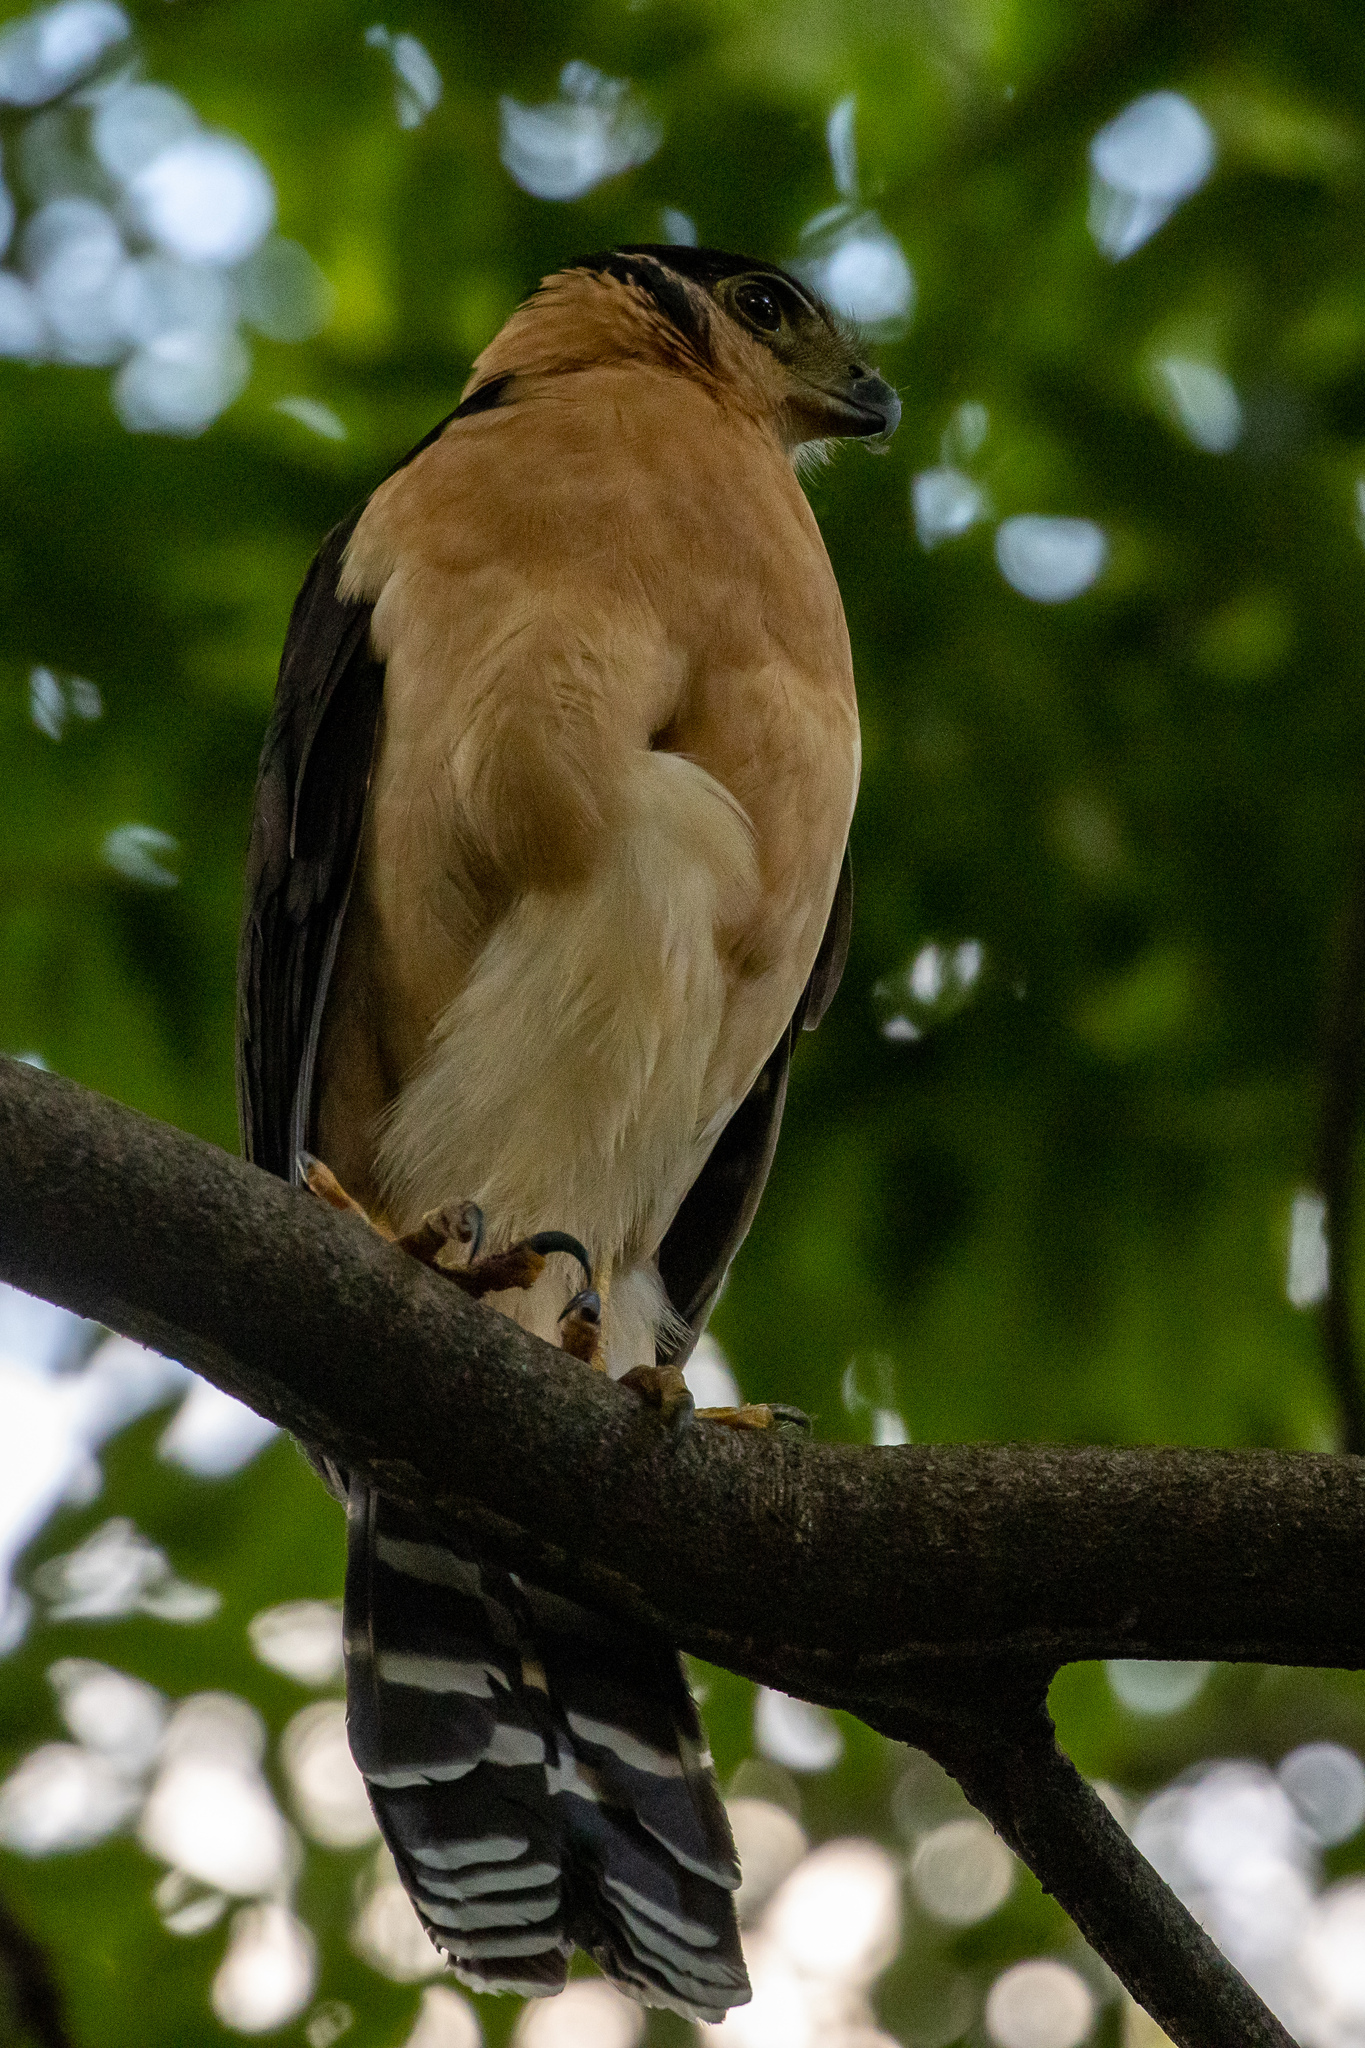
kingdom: Animalia
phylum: Chordata
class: Aves
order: Falconiformes
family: Falconidae
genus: Micrastur
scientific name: Micrastur semitorquatus
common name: Collared forest-falcon
